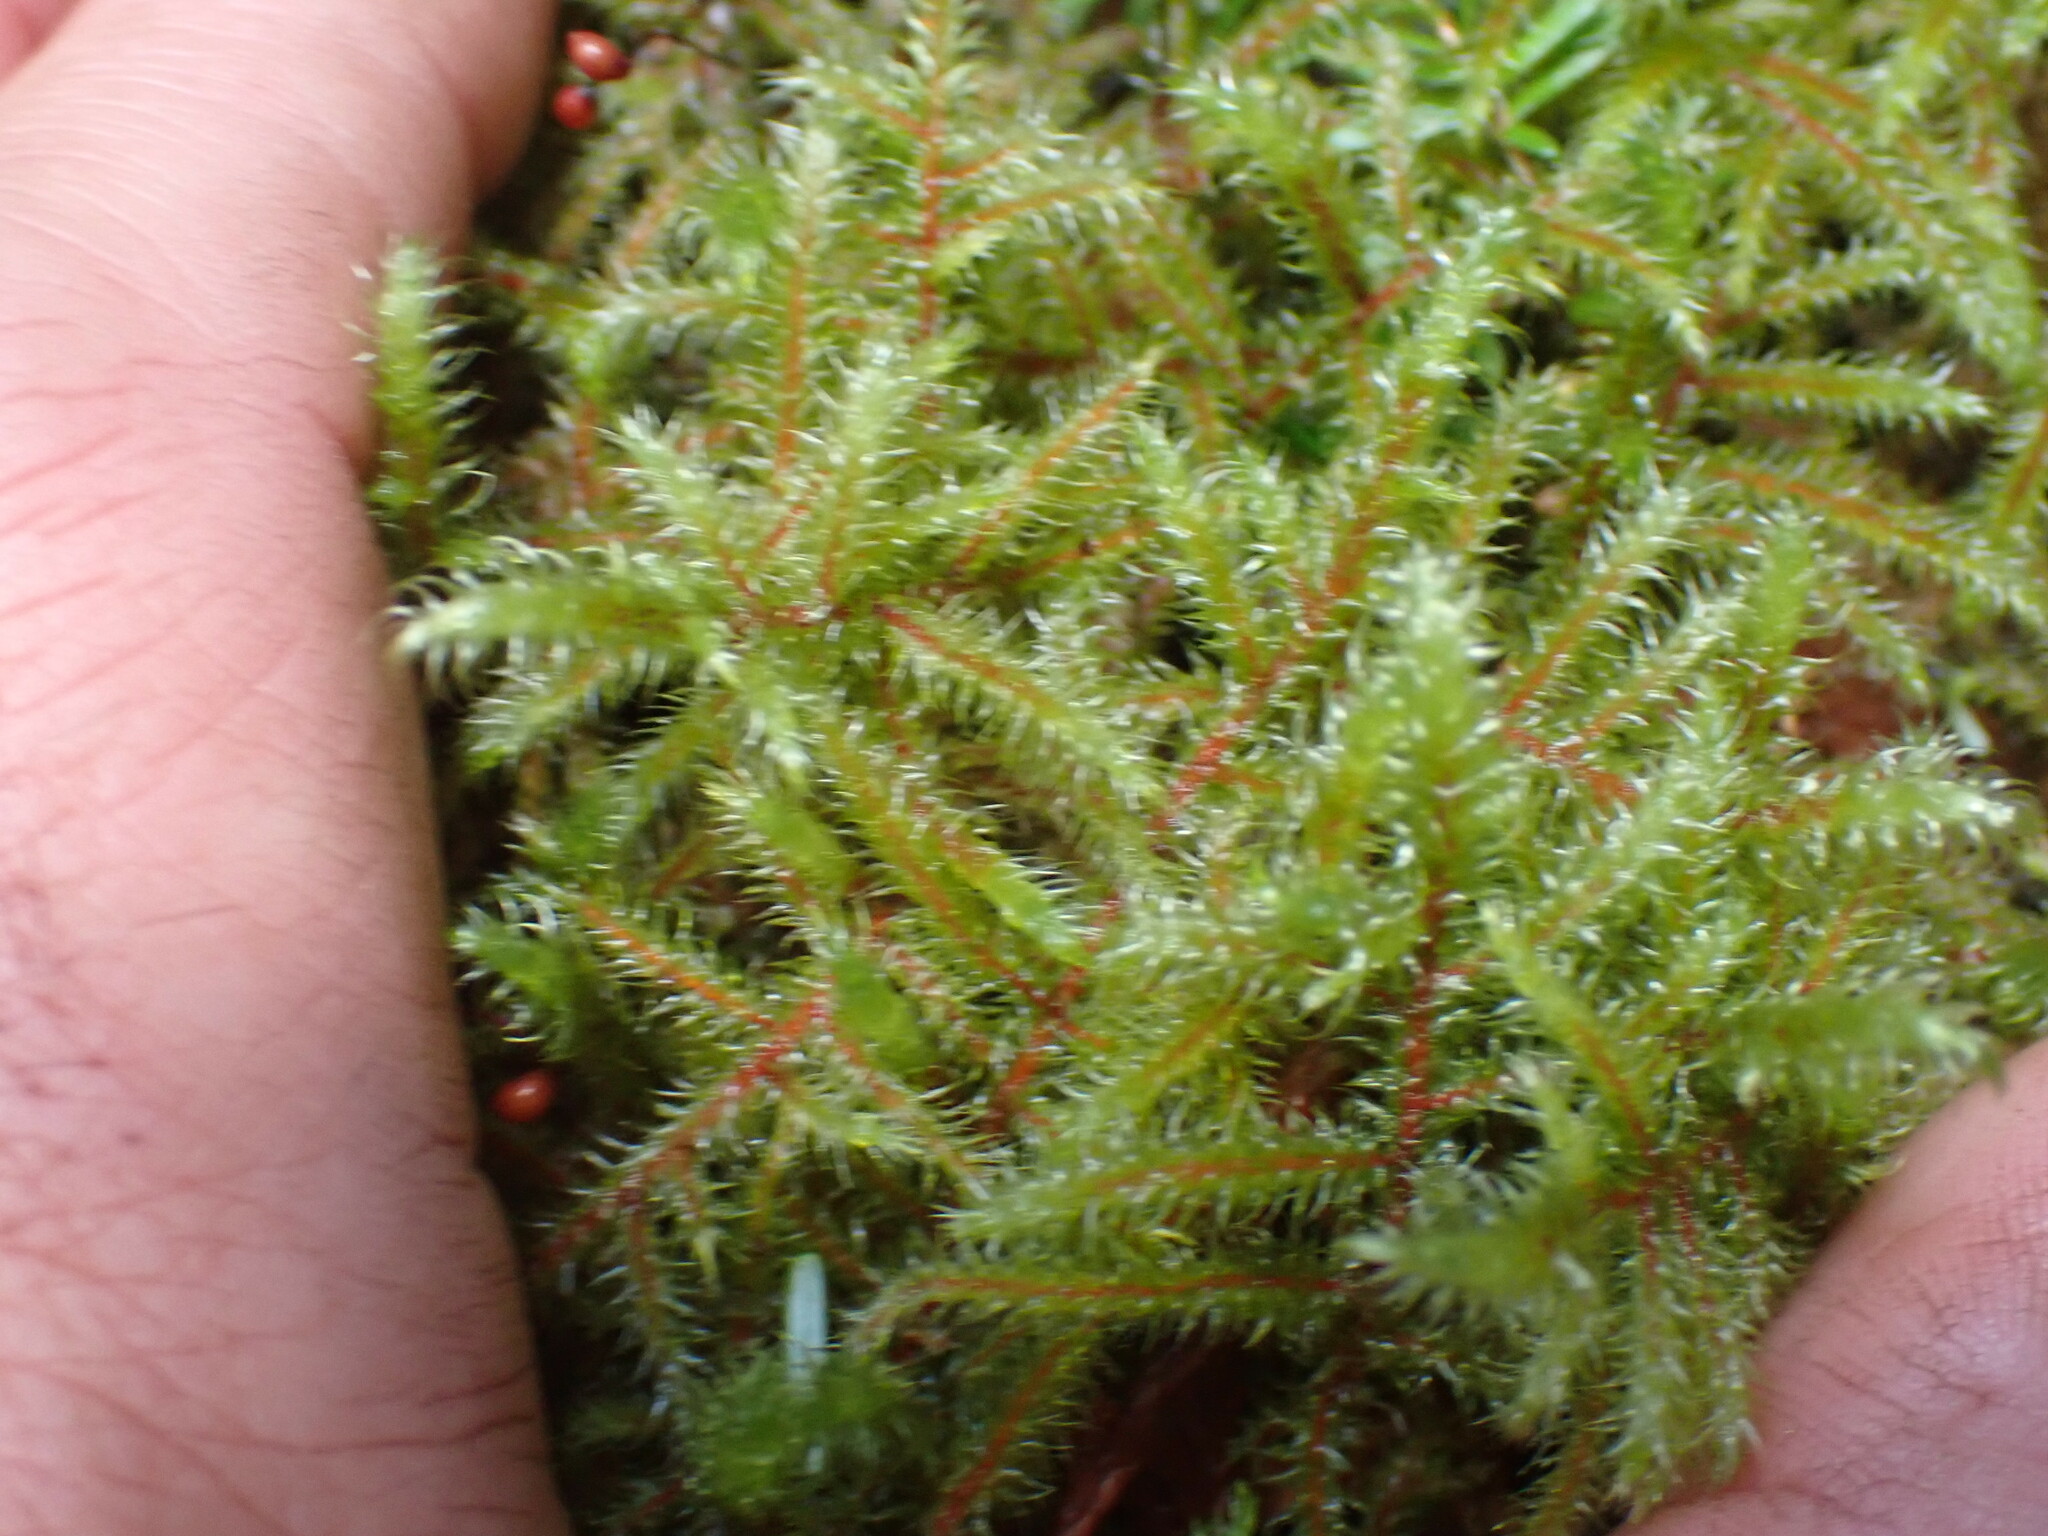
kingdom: Plantae
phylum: Bryophyta
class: Bryopsida
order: Hypnales
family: Hylocomiaceae
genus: Rhytidiadelphus
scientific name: Rhytidiadelphus loreus
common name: Lanky moss
